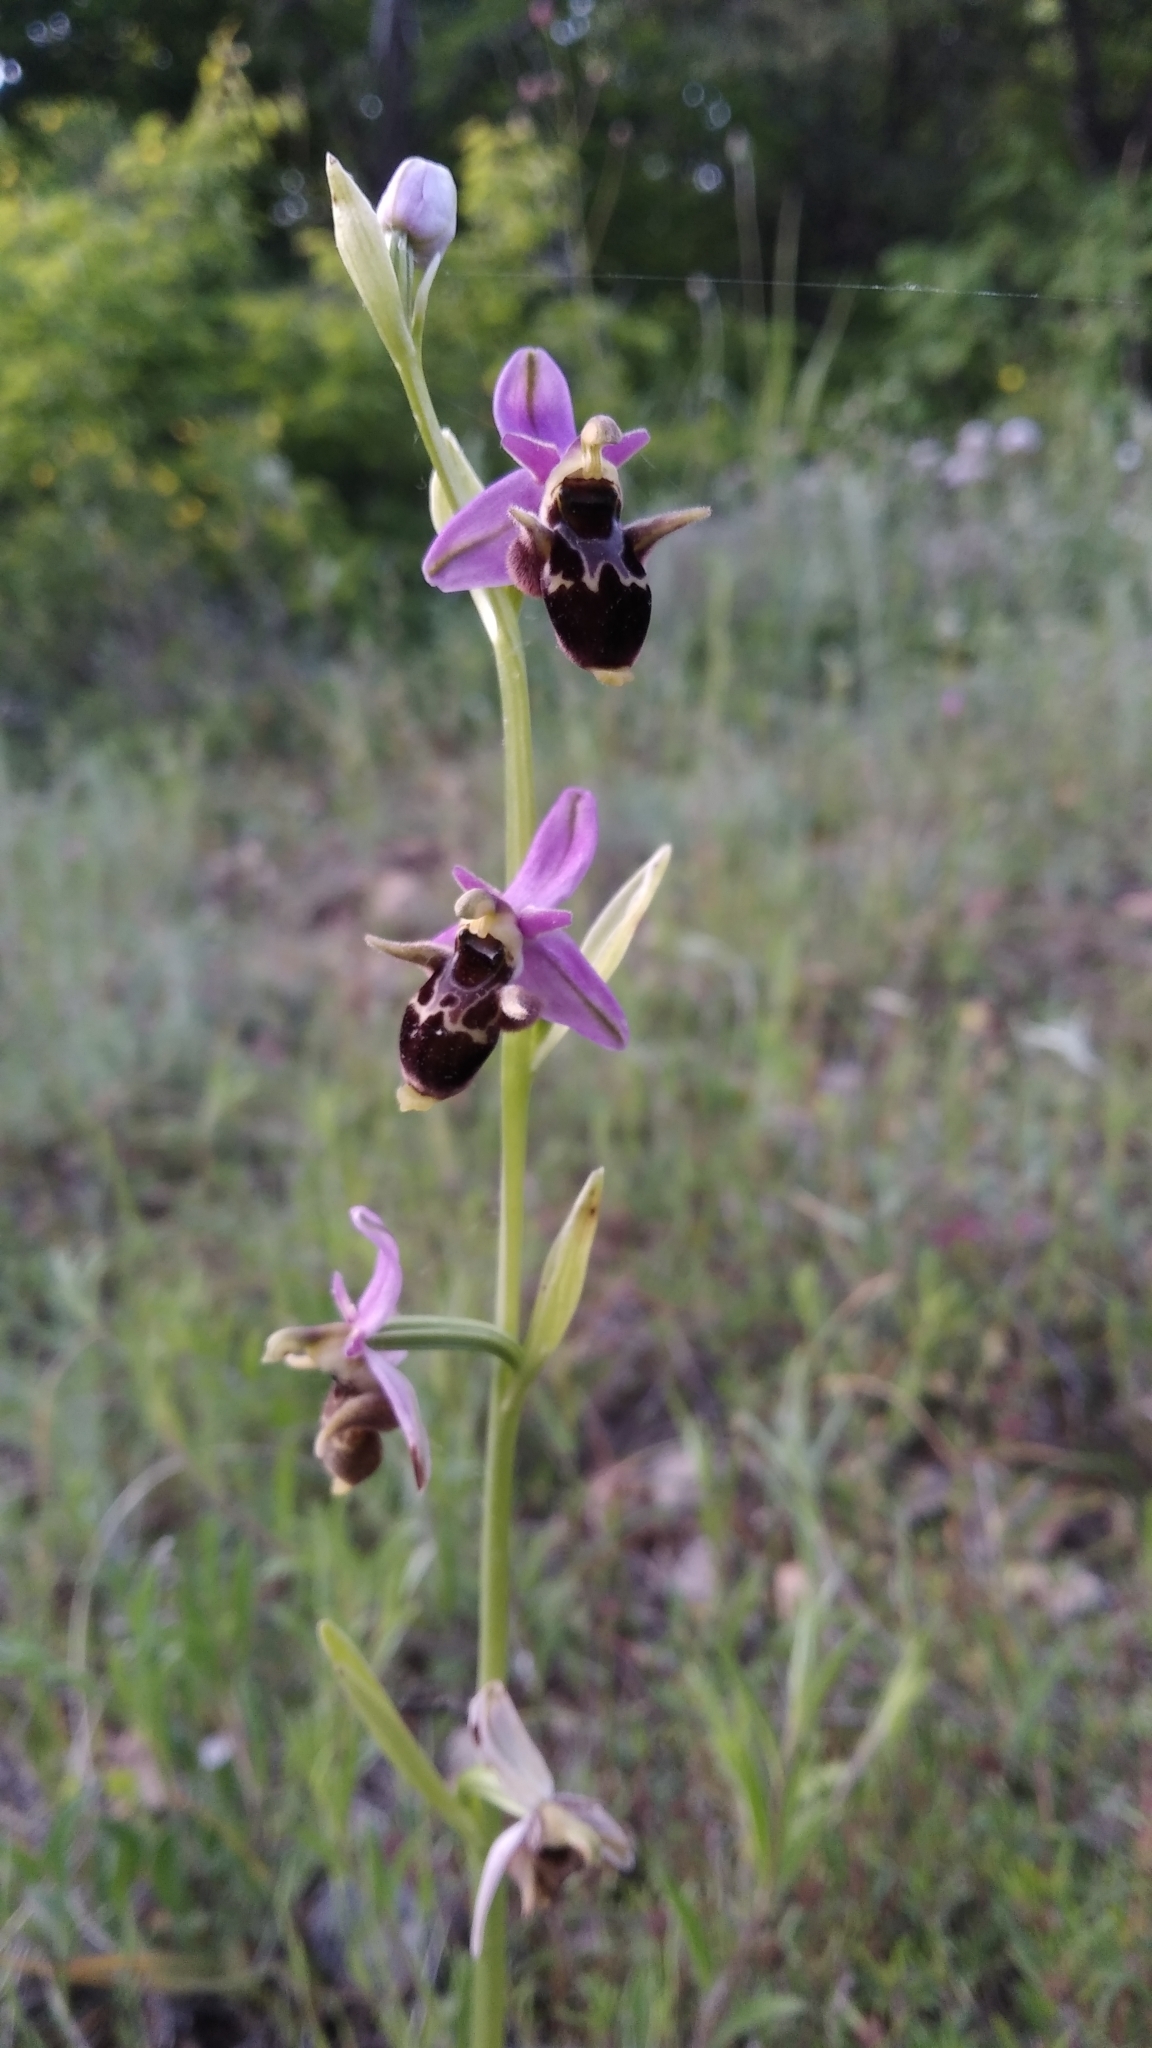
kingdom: Plantae
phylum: Tracheophyta
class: Liliopsida
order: Asparagales
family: Orchidaceae
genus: Ophrys
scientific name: Ophrys
